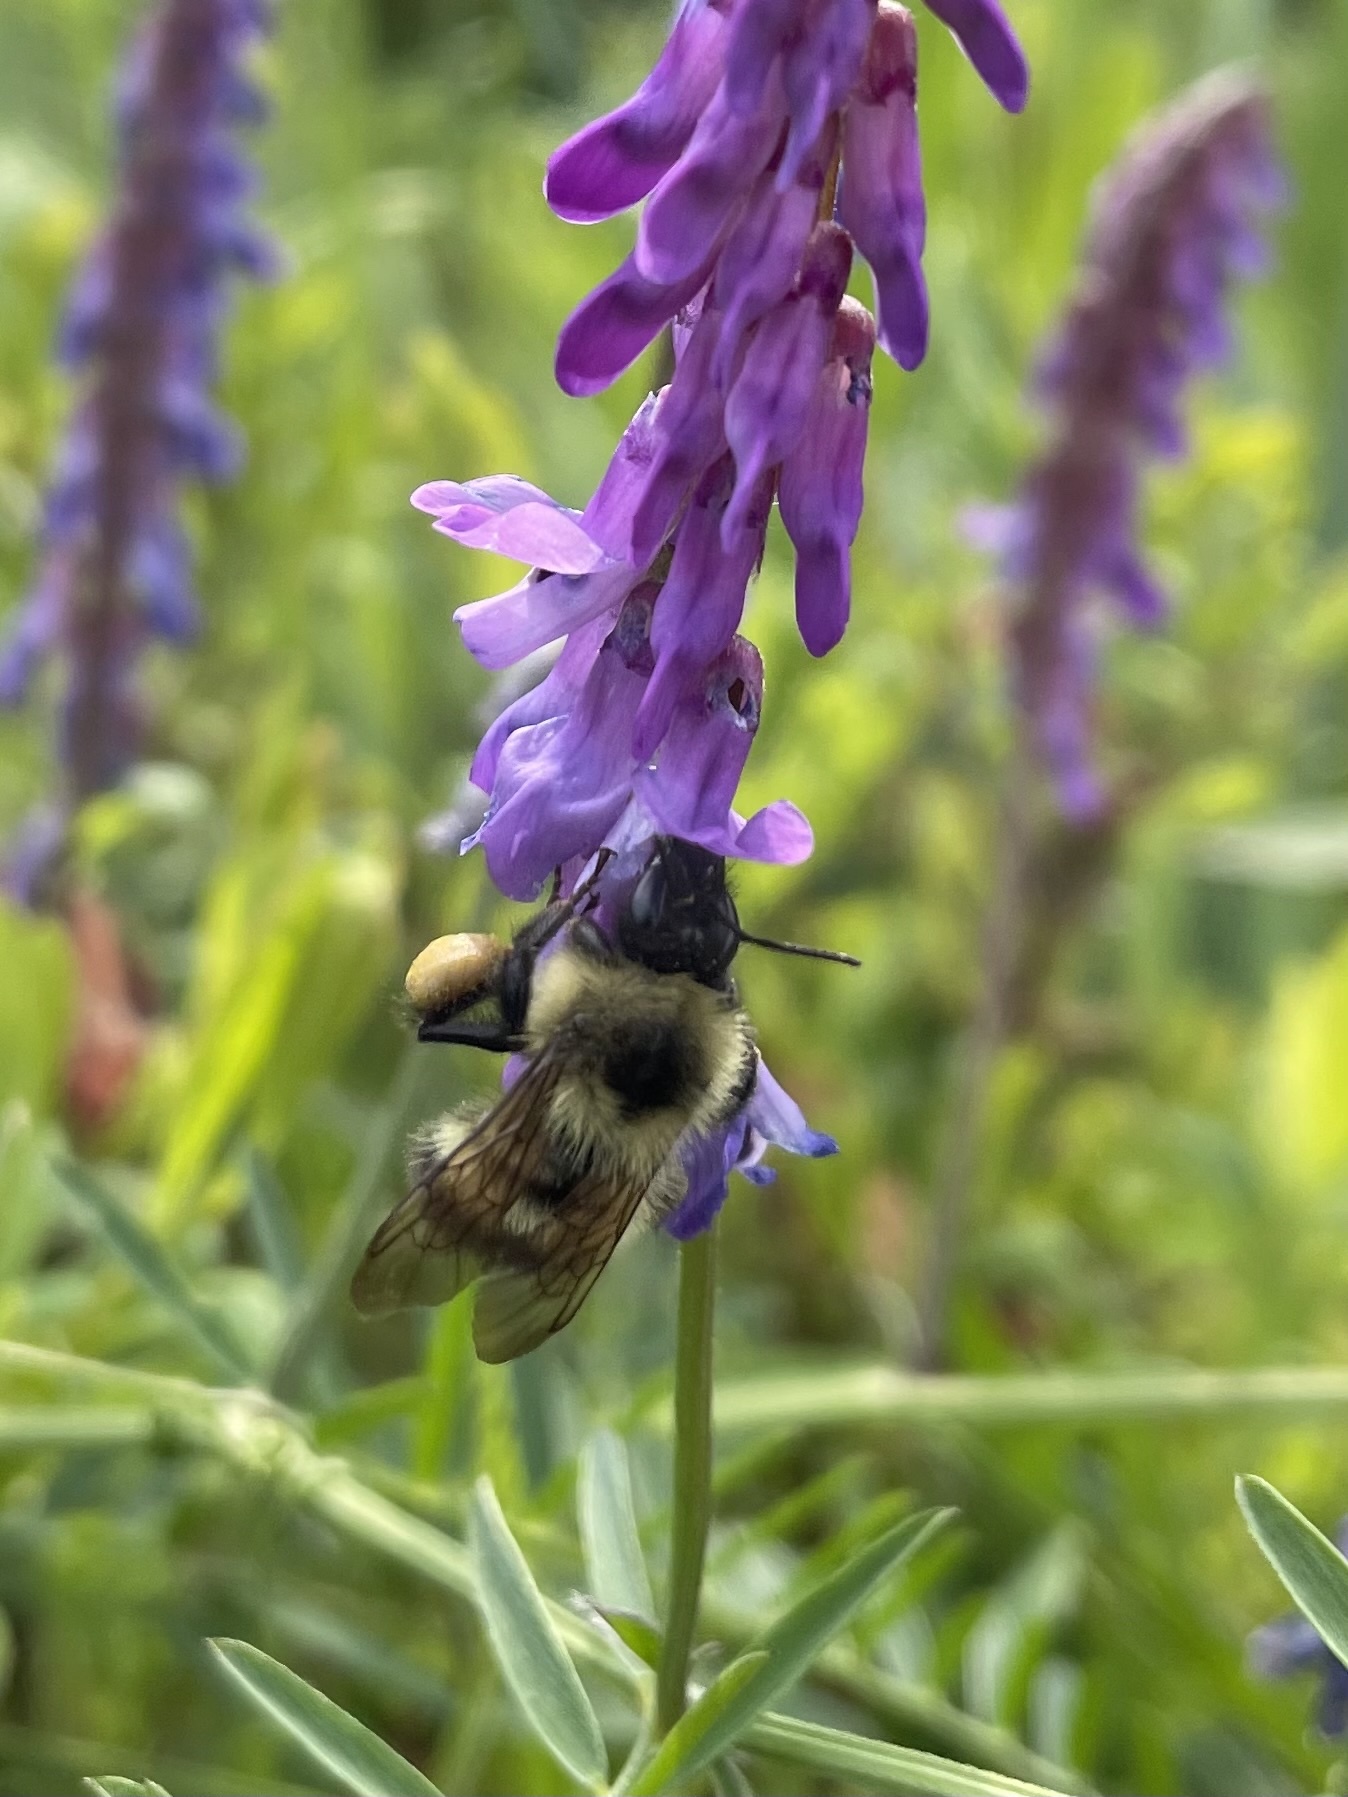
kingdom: Animalia
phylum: Arthropoda
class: Insecta
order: Hymenoptera
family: Apidae
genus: Bombus
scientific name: Bombus vagans
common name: Half-black bumble bee
